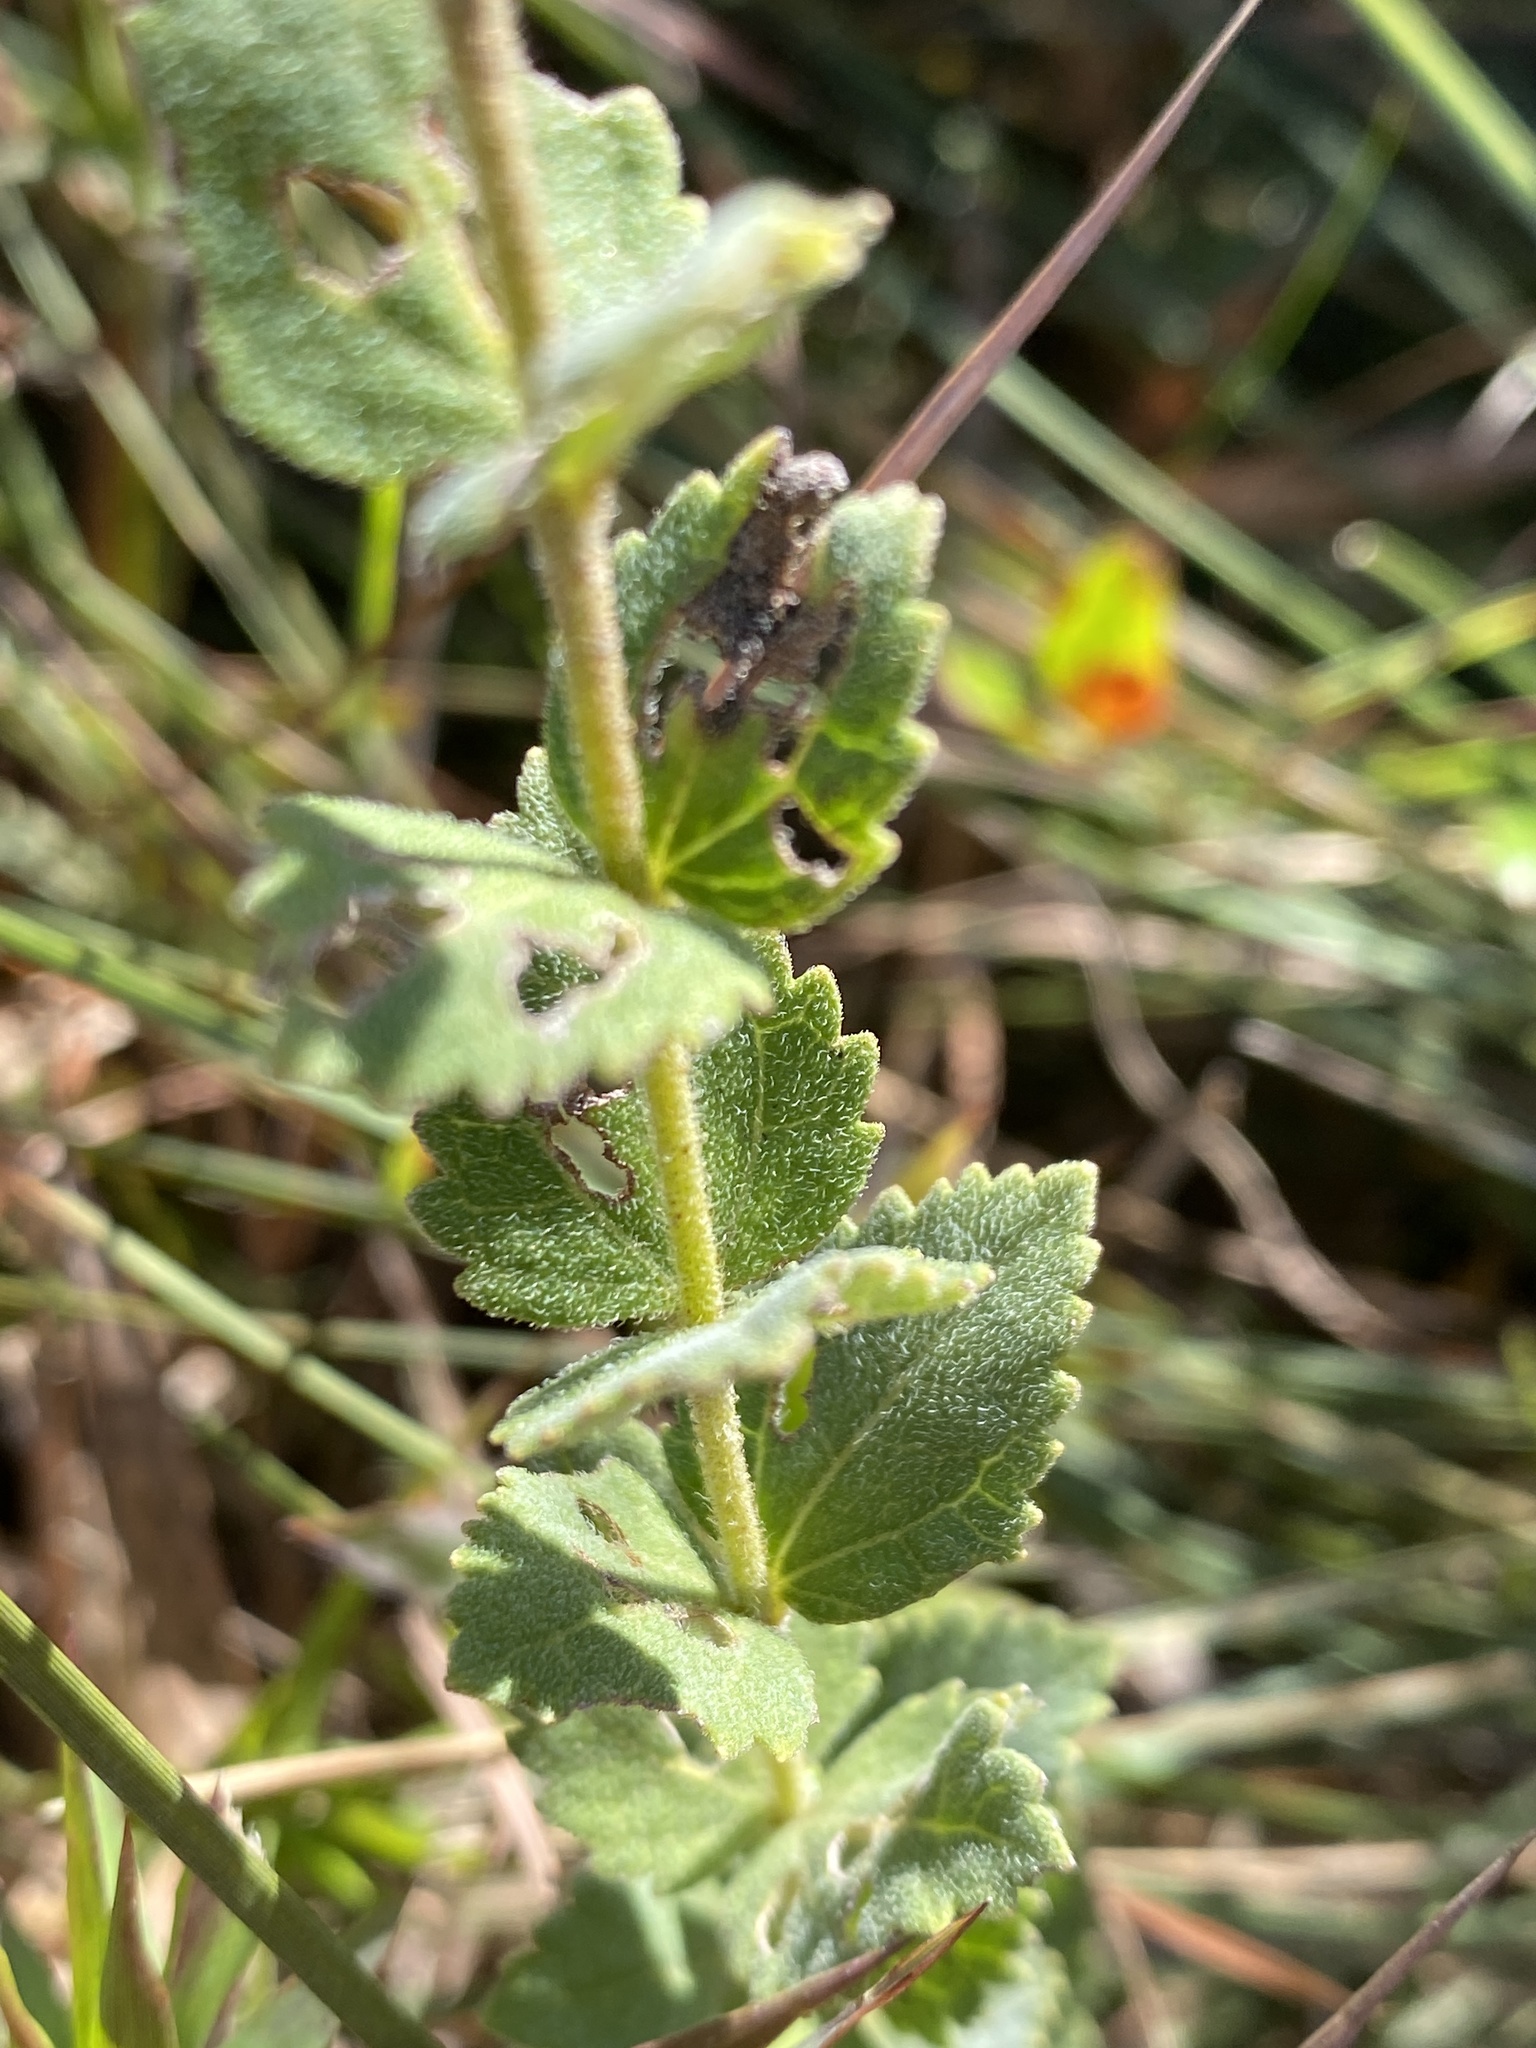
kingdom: Plantae
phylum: Tracheophyta
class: Magnoliopsida
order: Asterales
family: Asteraceae
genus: Eupatorium
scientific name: Eupatorium rotundifolium
